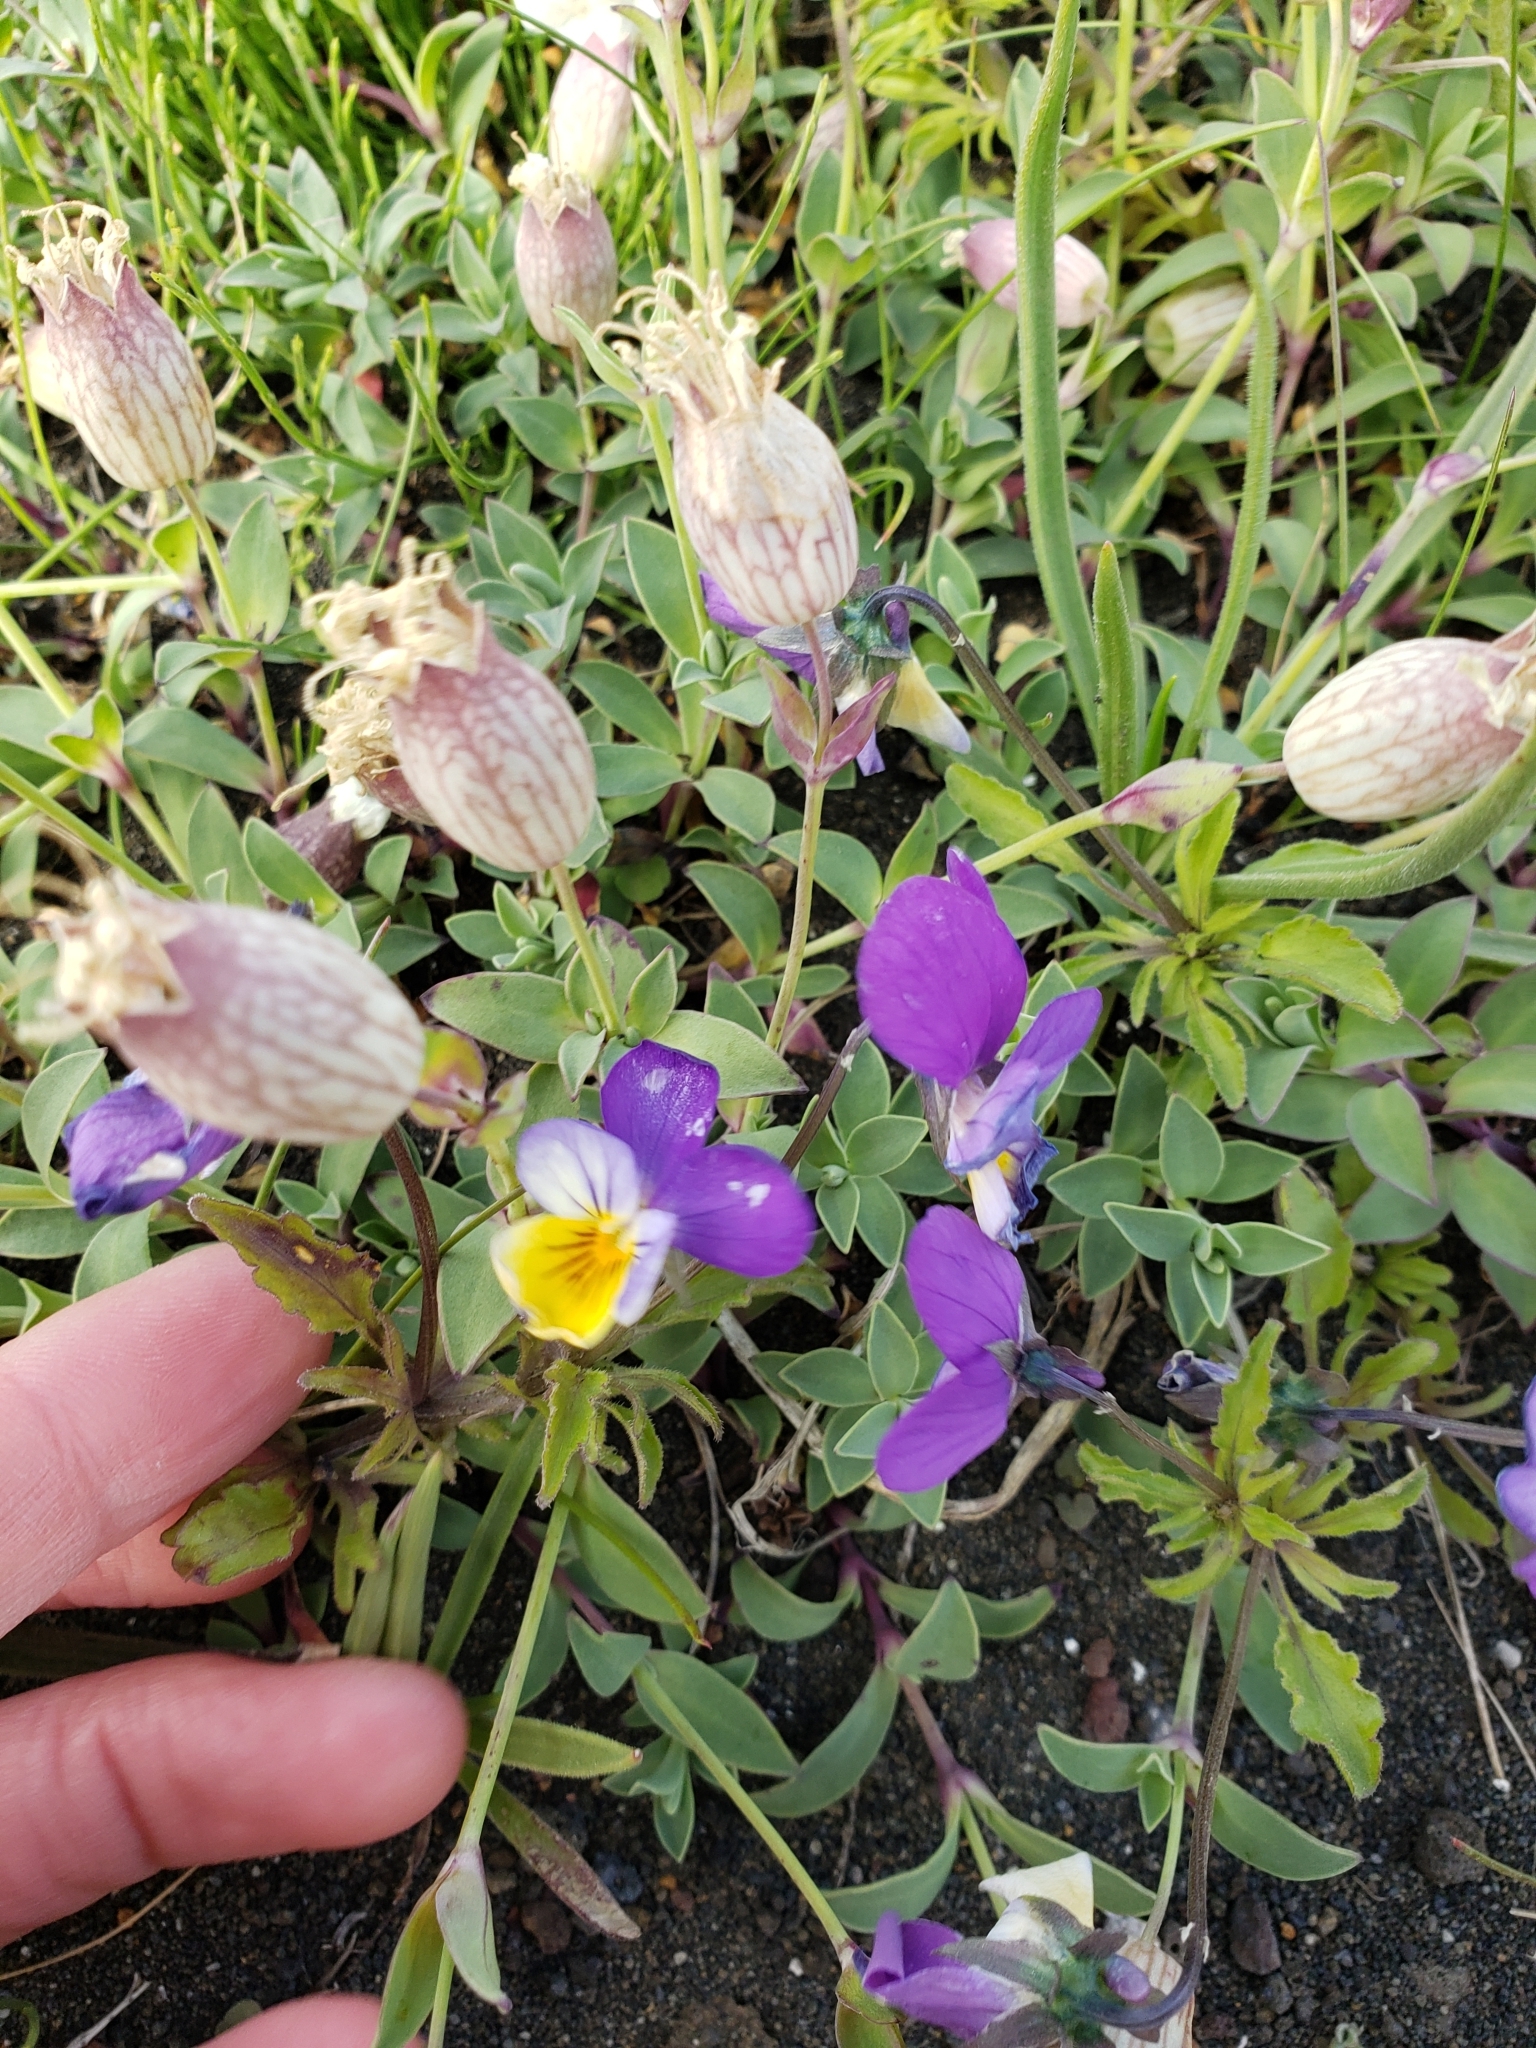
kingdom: Plantae
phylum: Tracheophyta
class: Magnoliopsida
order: Malpighiales
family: Violaceae
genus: Viola
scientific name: Viola tricolor
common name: Pansy
